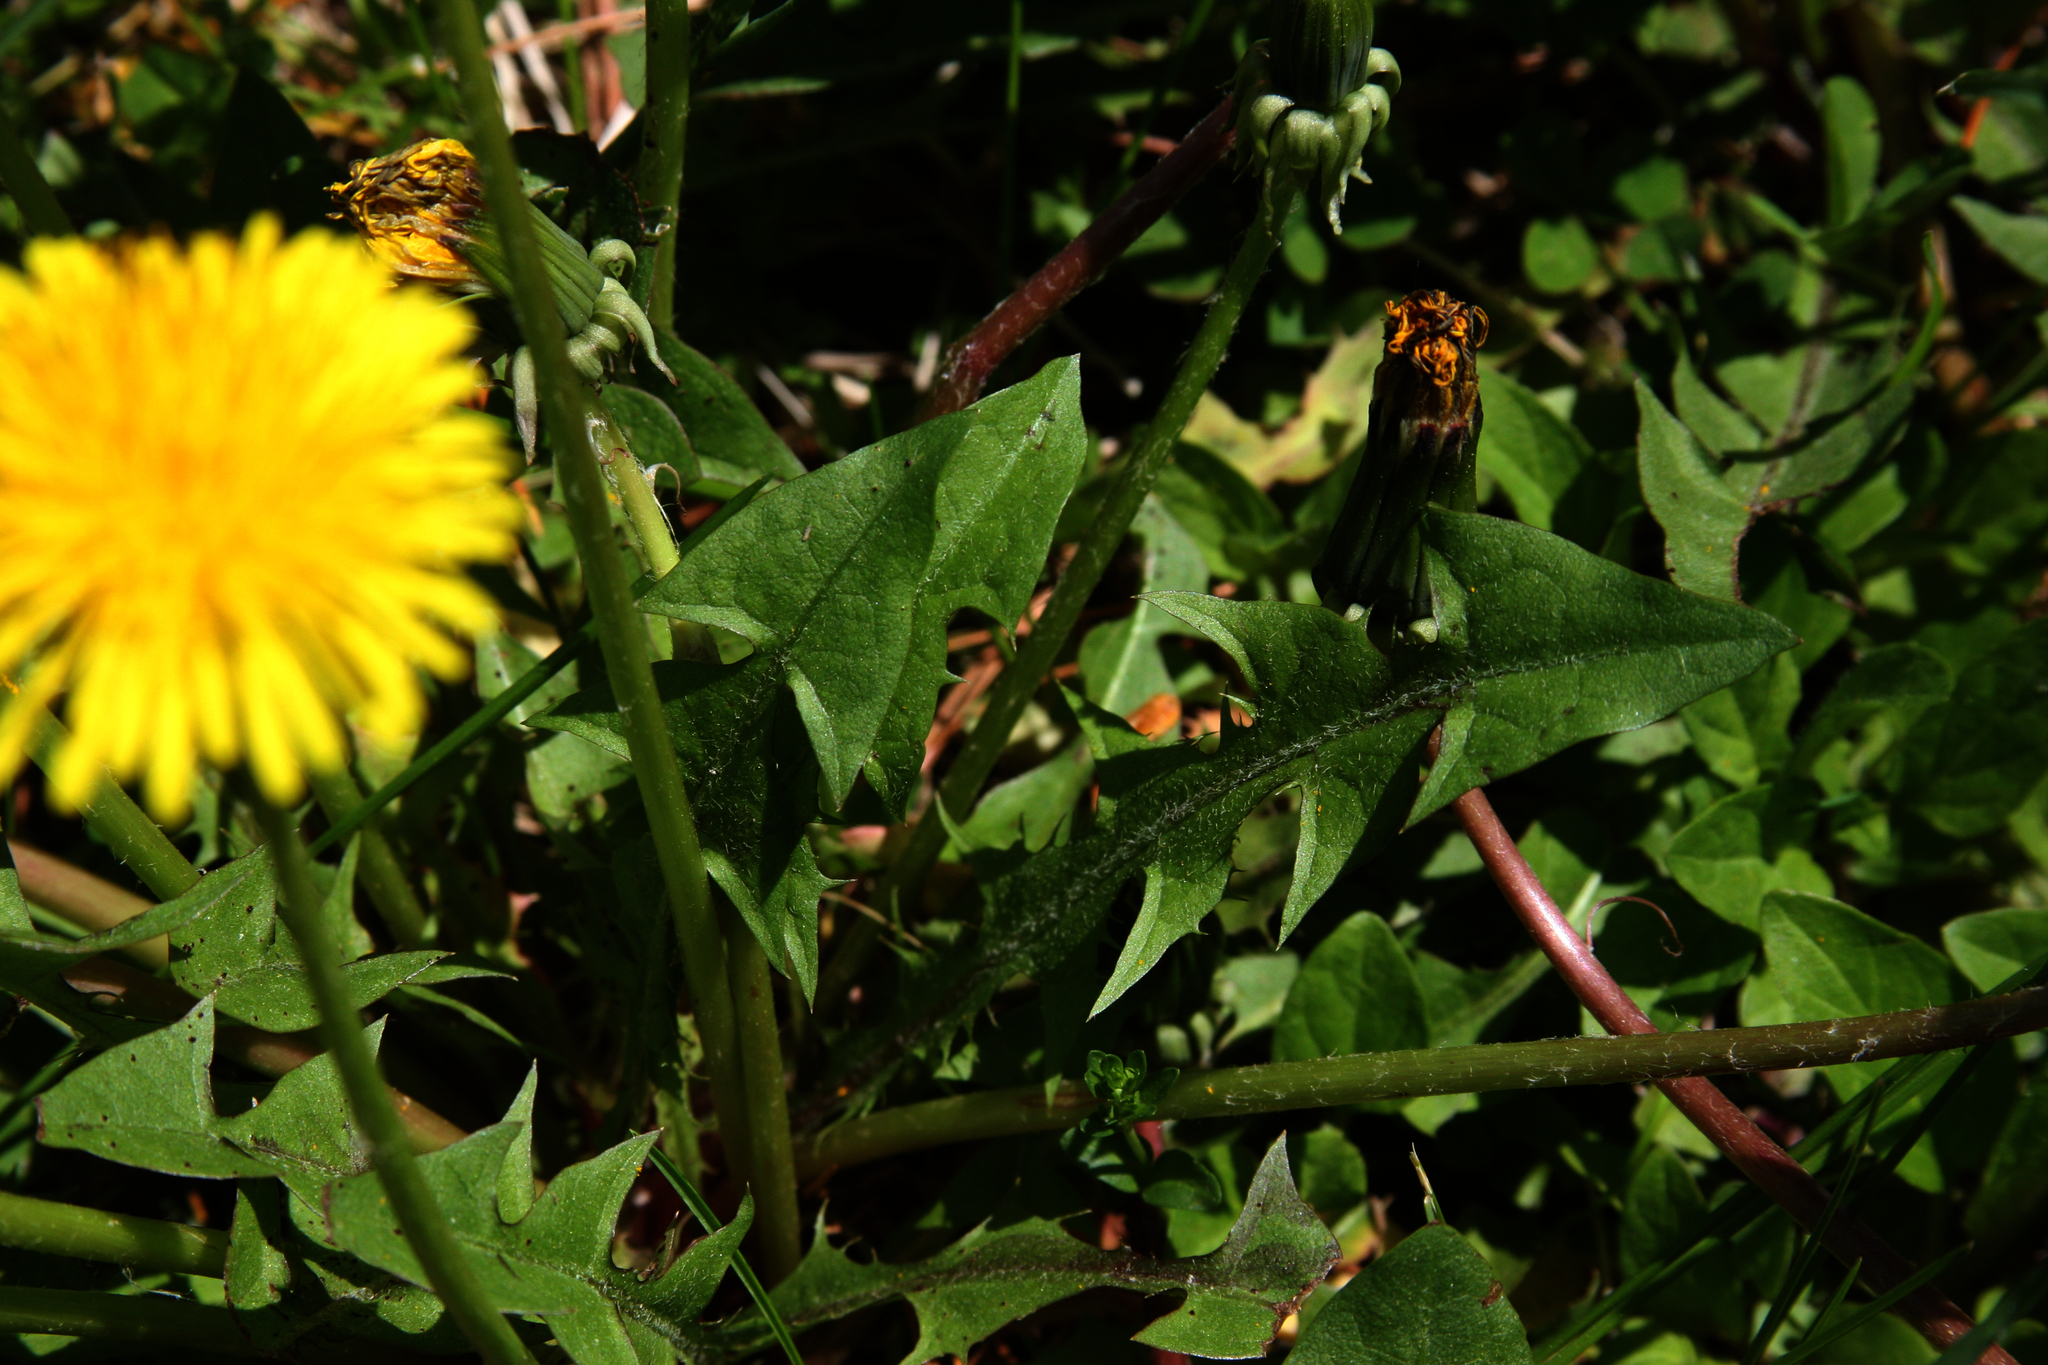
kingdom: Plantae
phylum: Tracheophyta
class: Magnoliopsida
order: Asterales
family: Asteraceae
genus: Taraxacum
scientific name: Taraxacum erythrospermum
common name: Rock dandelion
